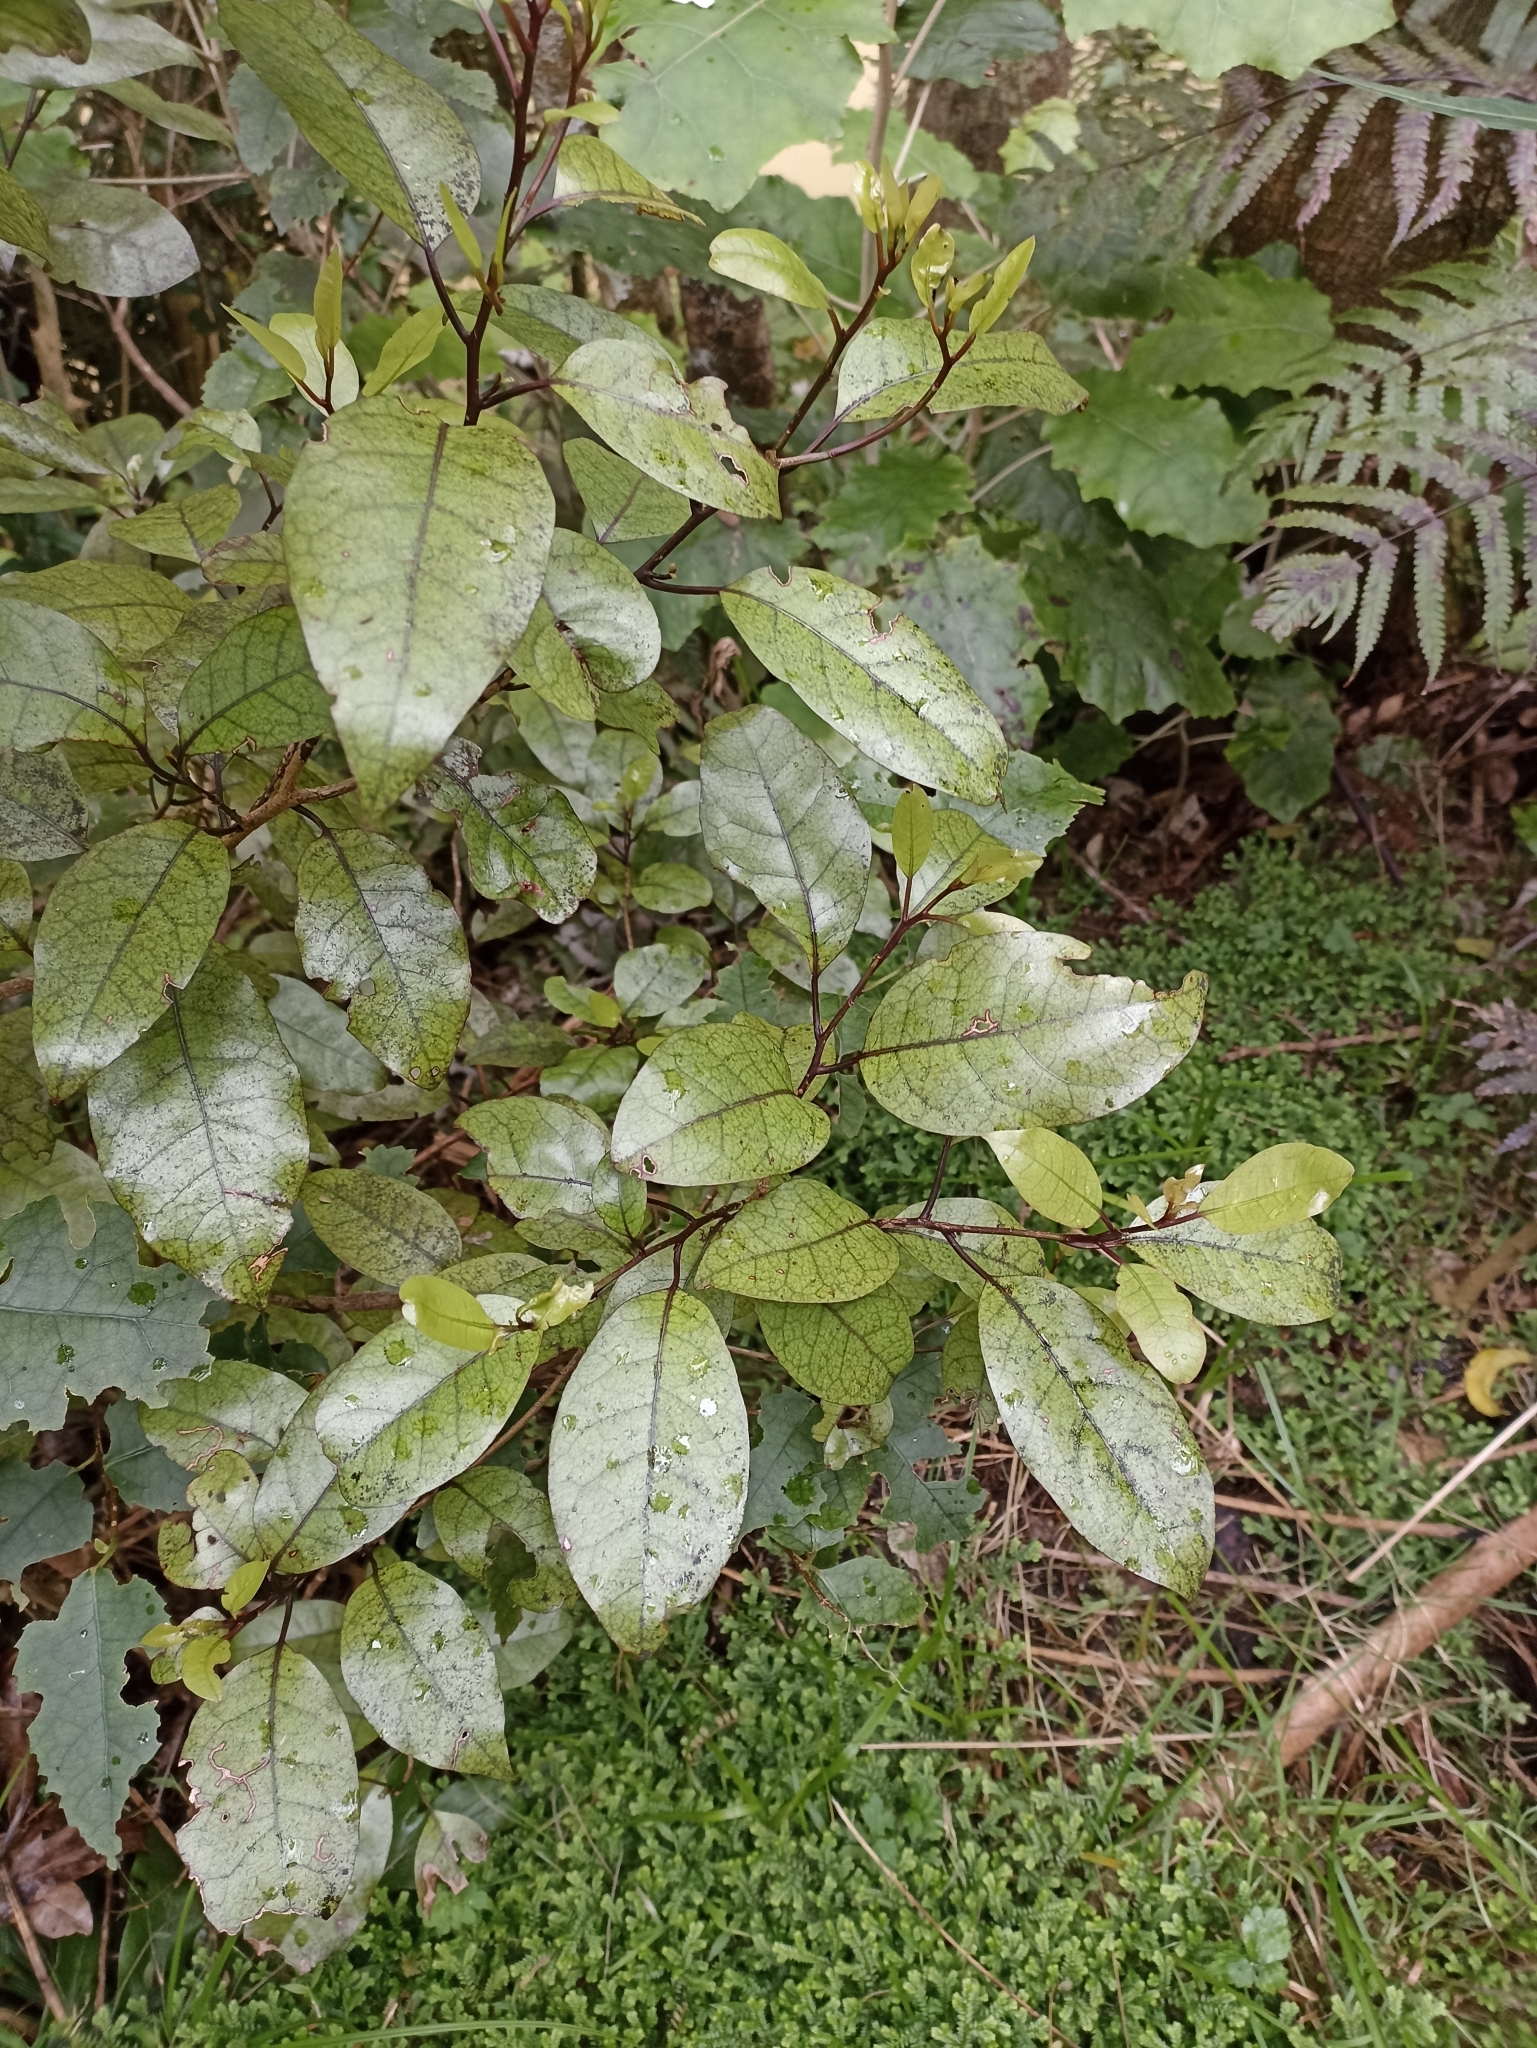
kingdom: Plantae
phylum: Tracheophyta
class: Magnoliopsida
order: Laurales
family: Lauraceae
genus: Litsea
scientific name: Litsea calicaris
